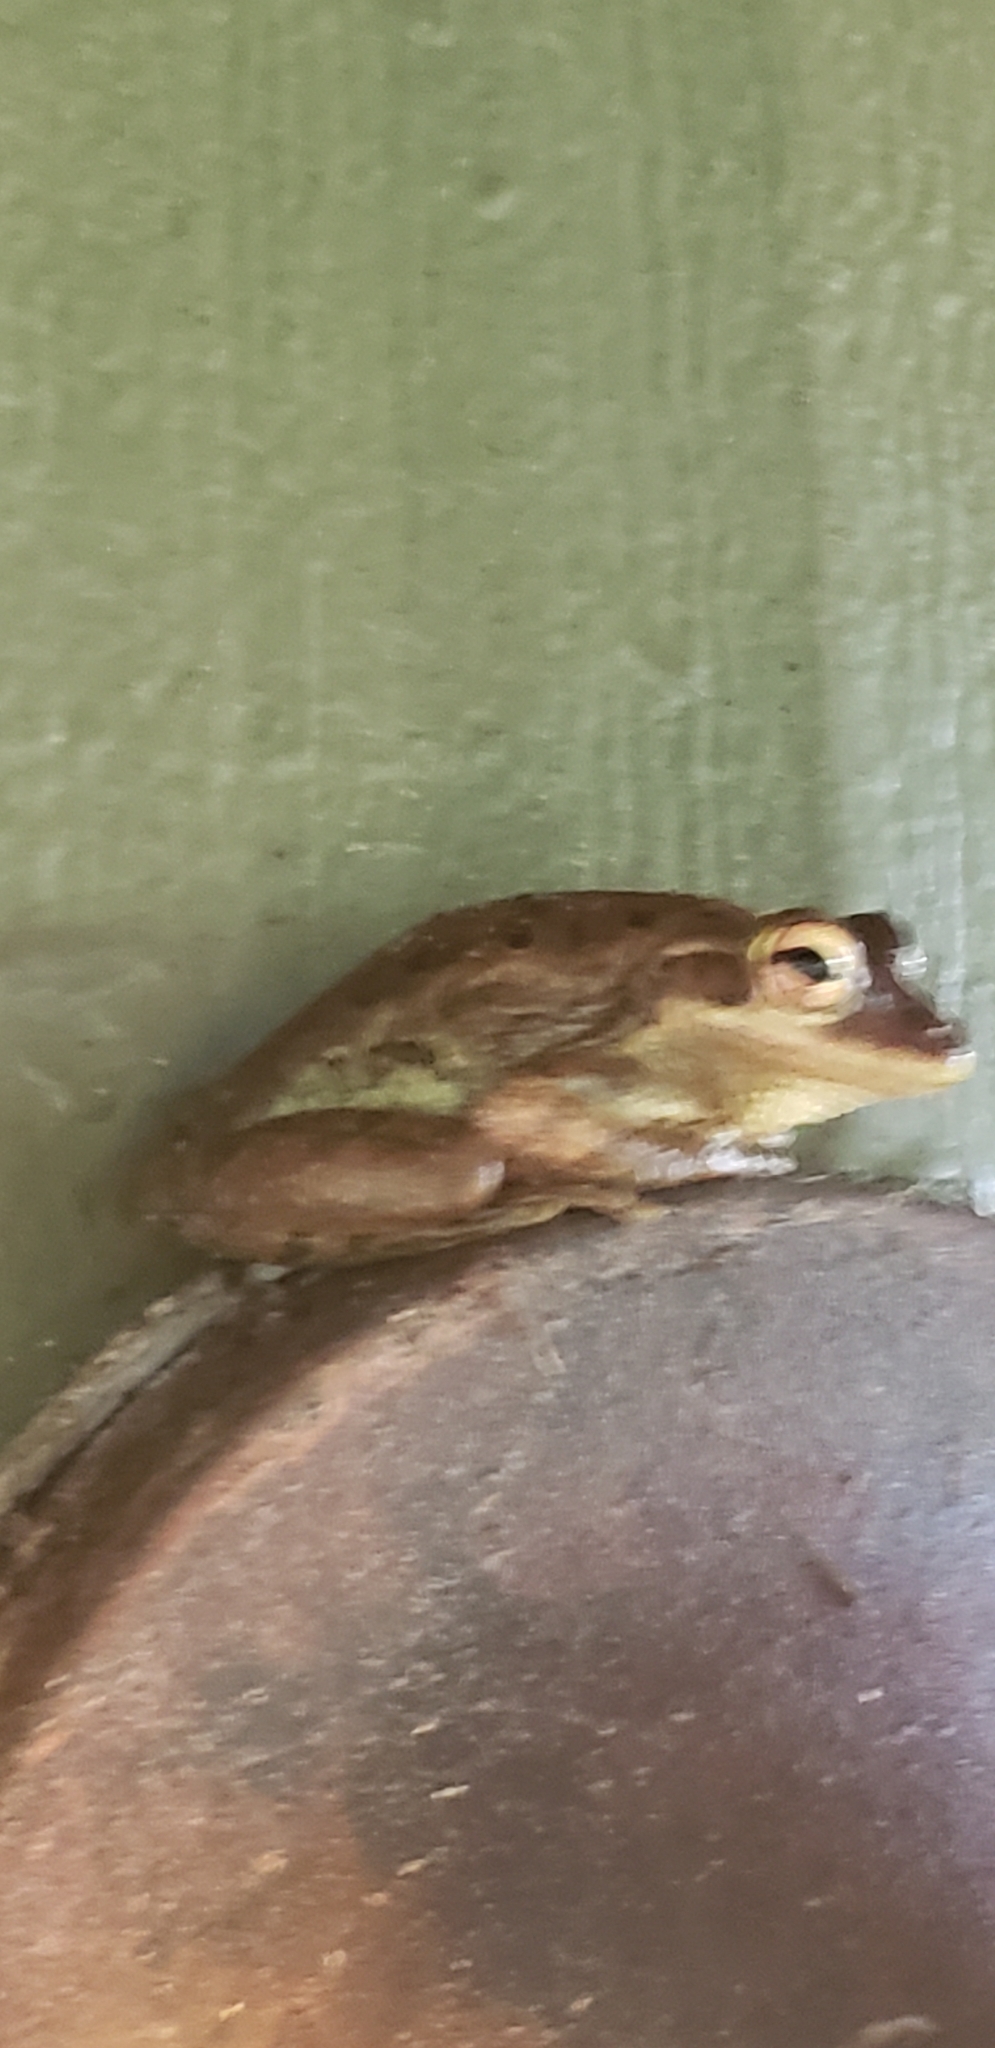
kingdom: Animalia
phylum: Chordata
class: Amphibia
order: Anura
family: Hylidae
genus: Osteopilus
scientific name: Osteopilus septentrionalis
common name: Cuban treefrog
